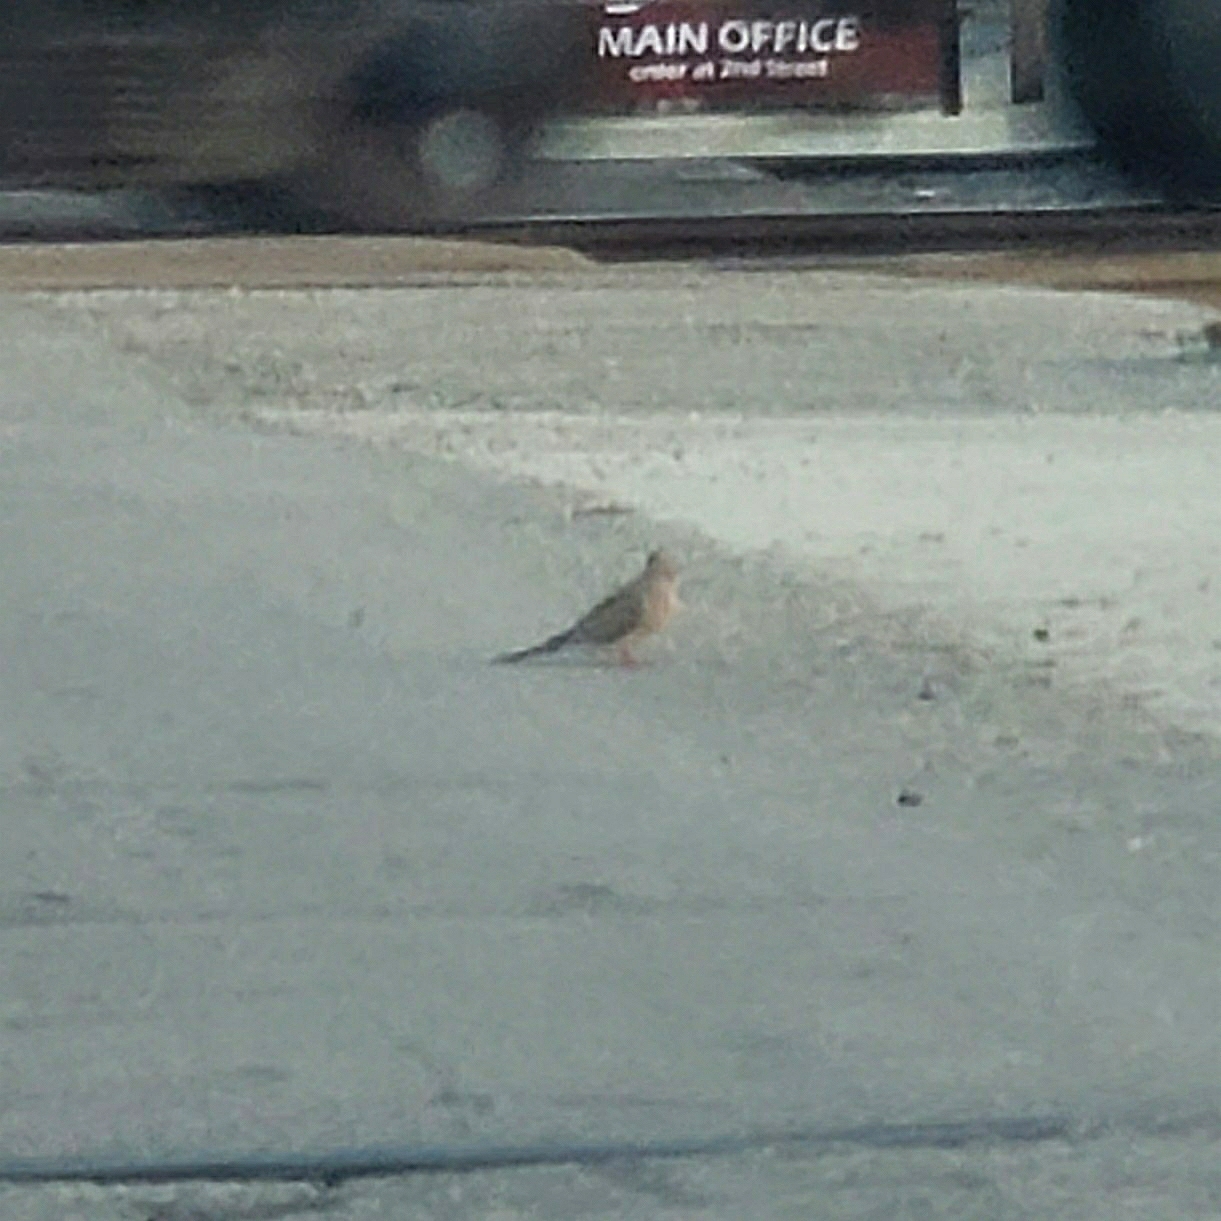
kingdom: Animalia
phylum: Chordata
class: Aves
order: Columbiformes
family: Columbidae
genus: Zenaida
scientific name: Zenaida macroura
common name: Mourning dove
